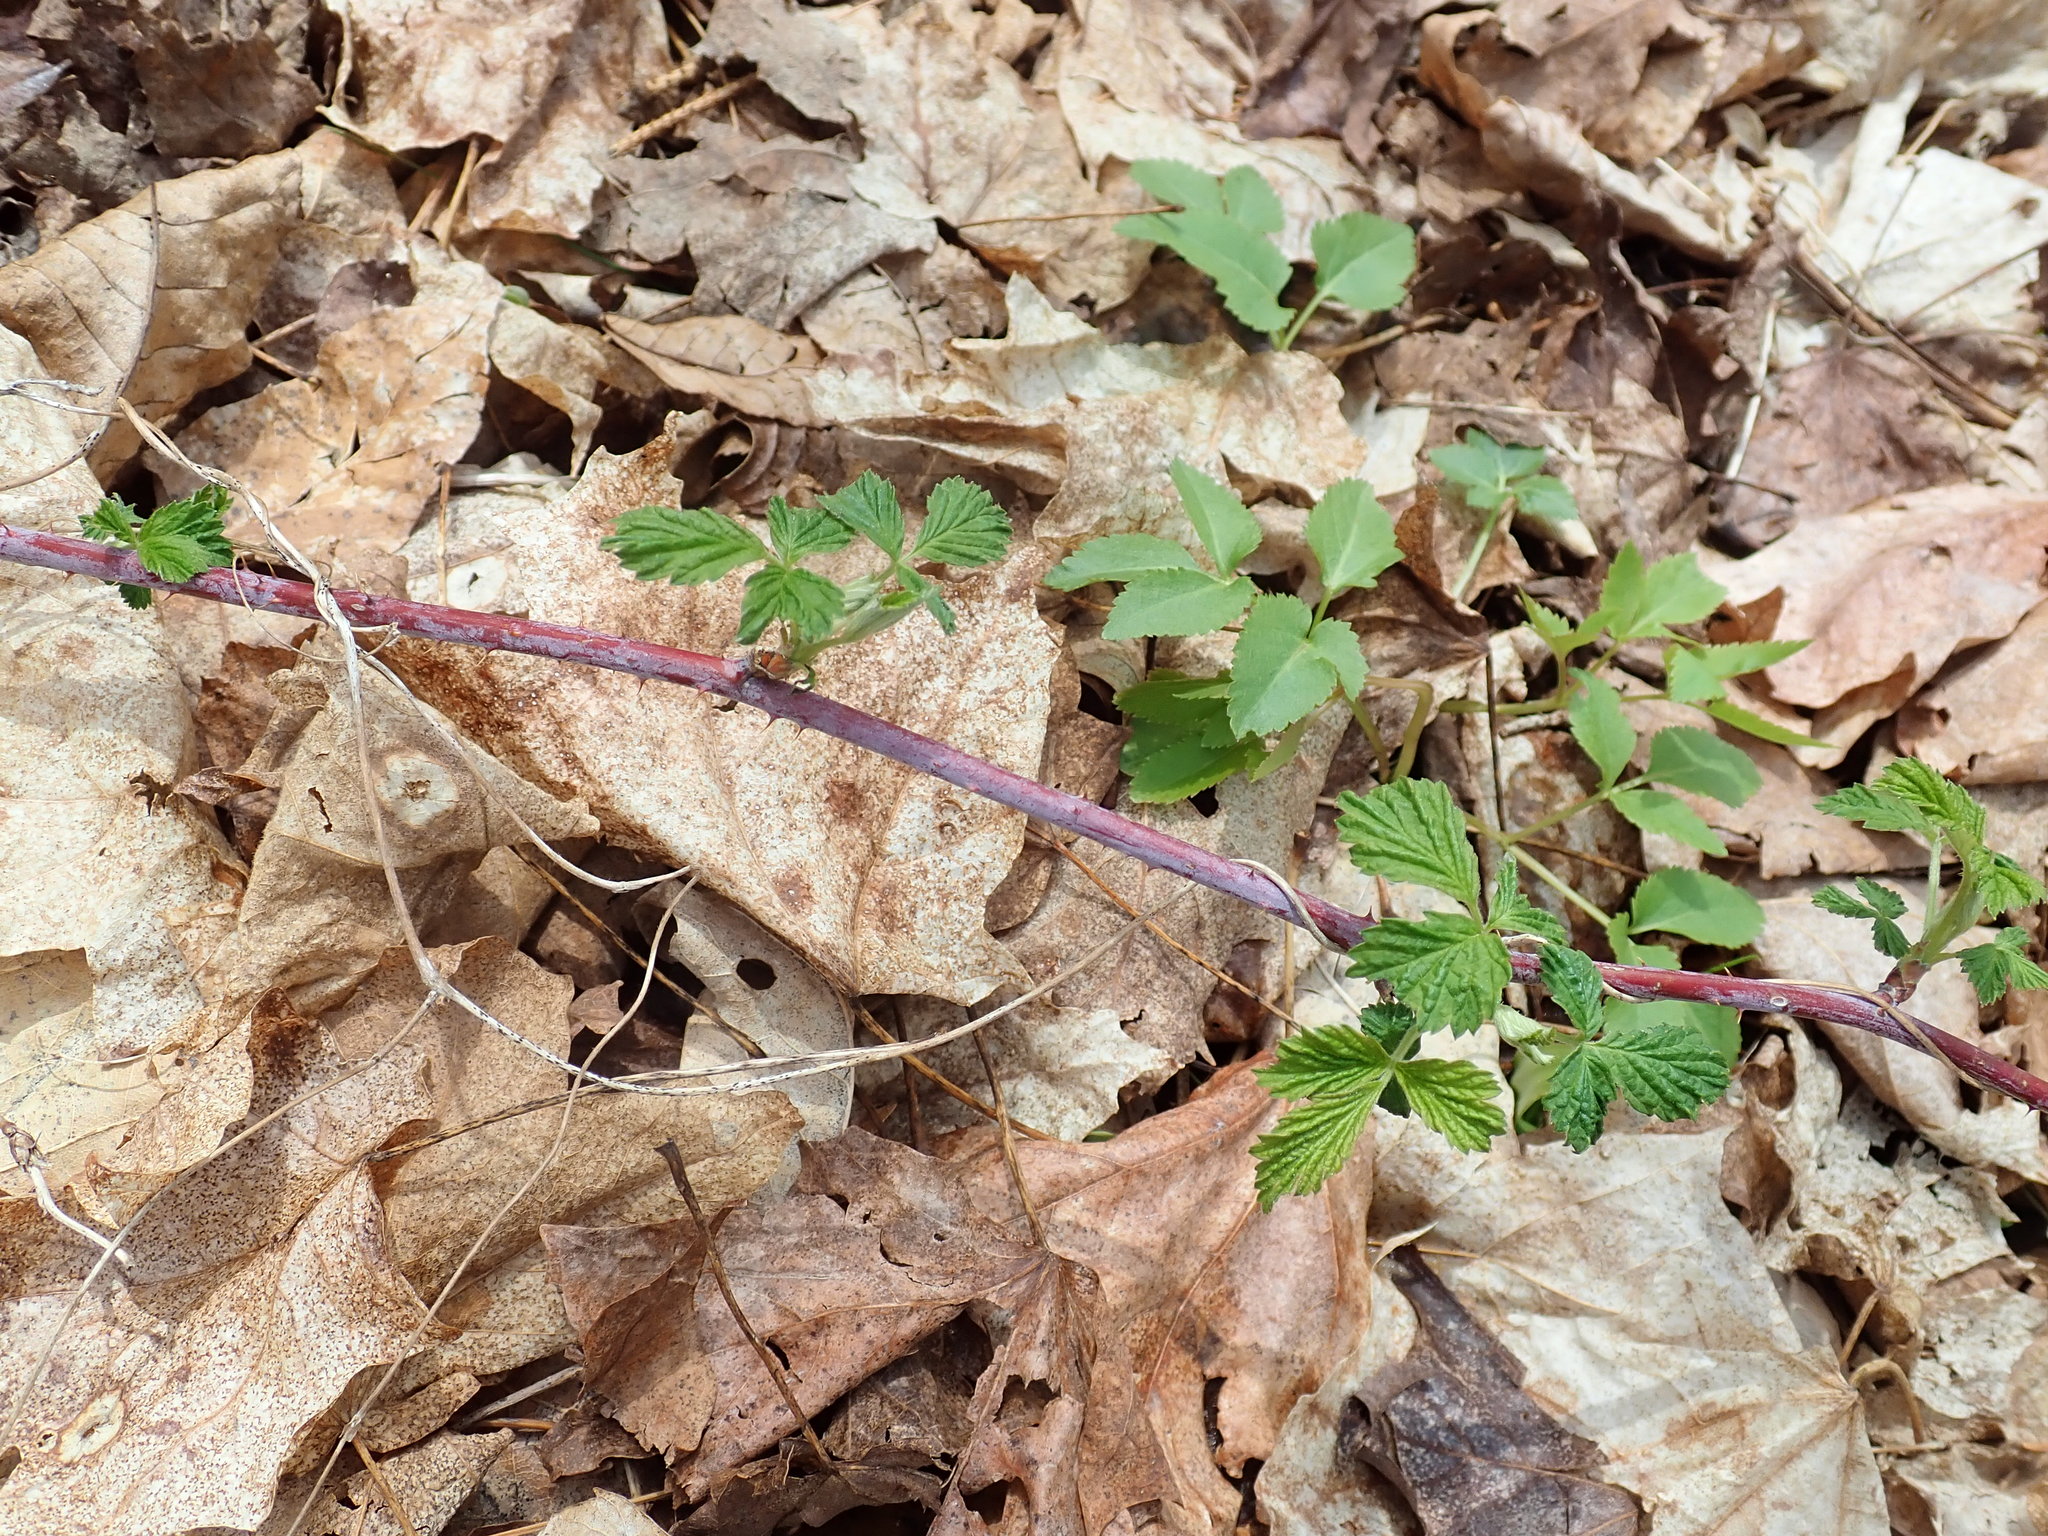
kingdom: Plantae
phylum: Tracheophyta
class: Magnoliopsida
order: Rosales
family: Rosaceae
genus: Rubus
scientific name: Rubus occidentalis
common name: Black raspberry
